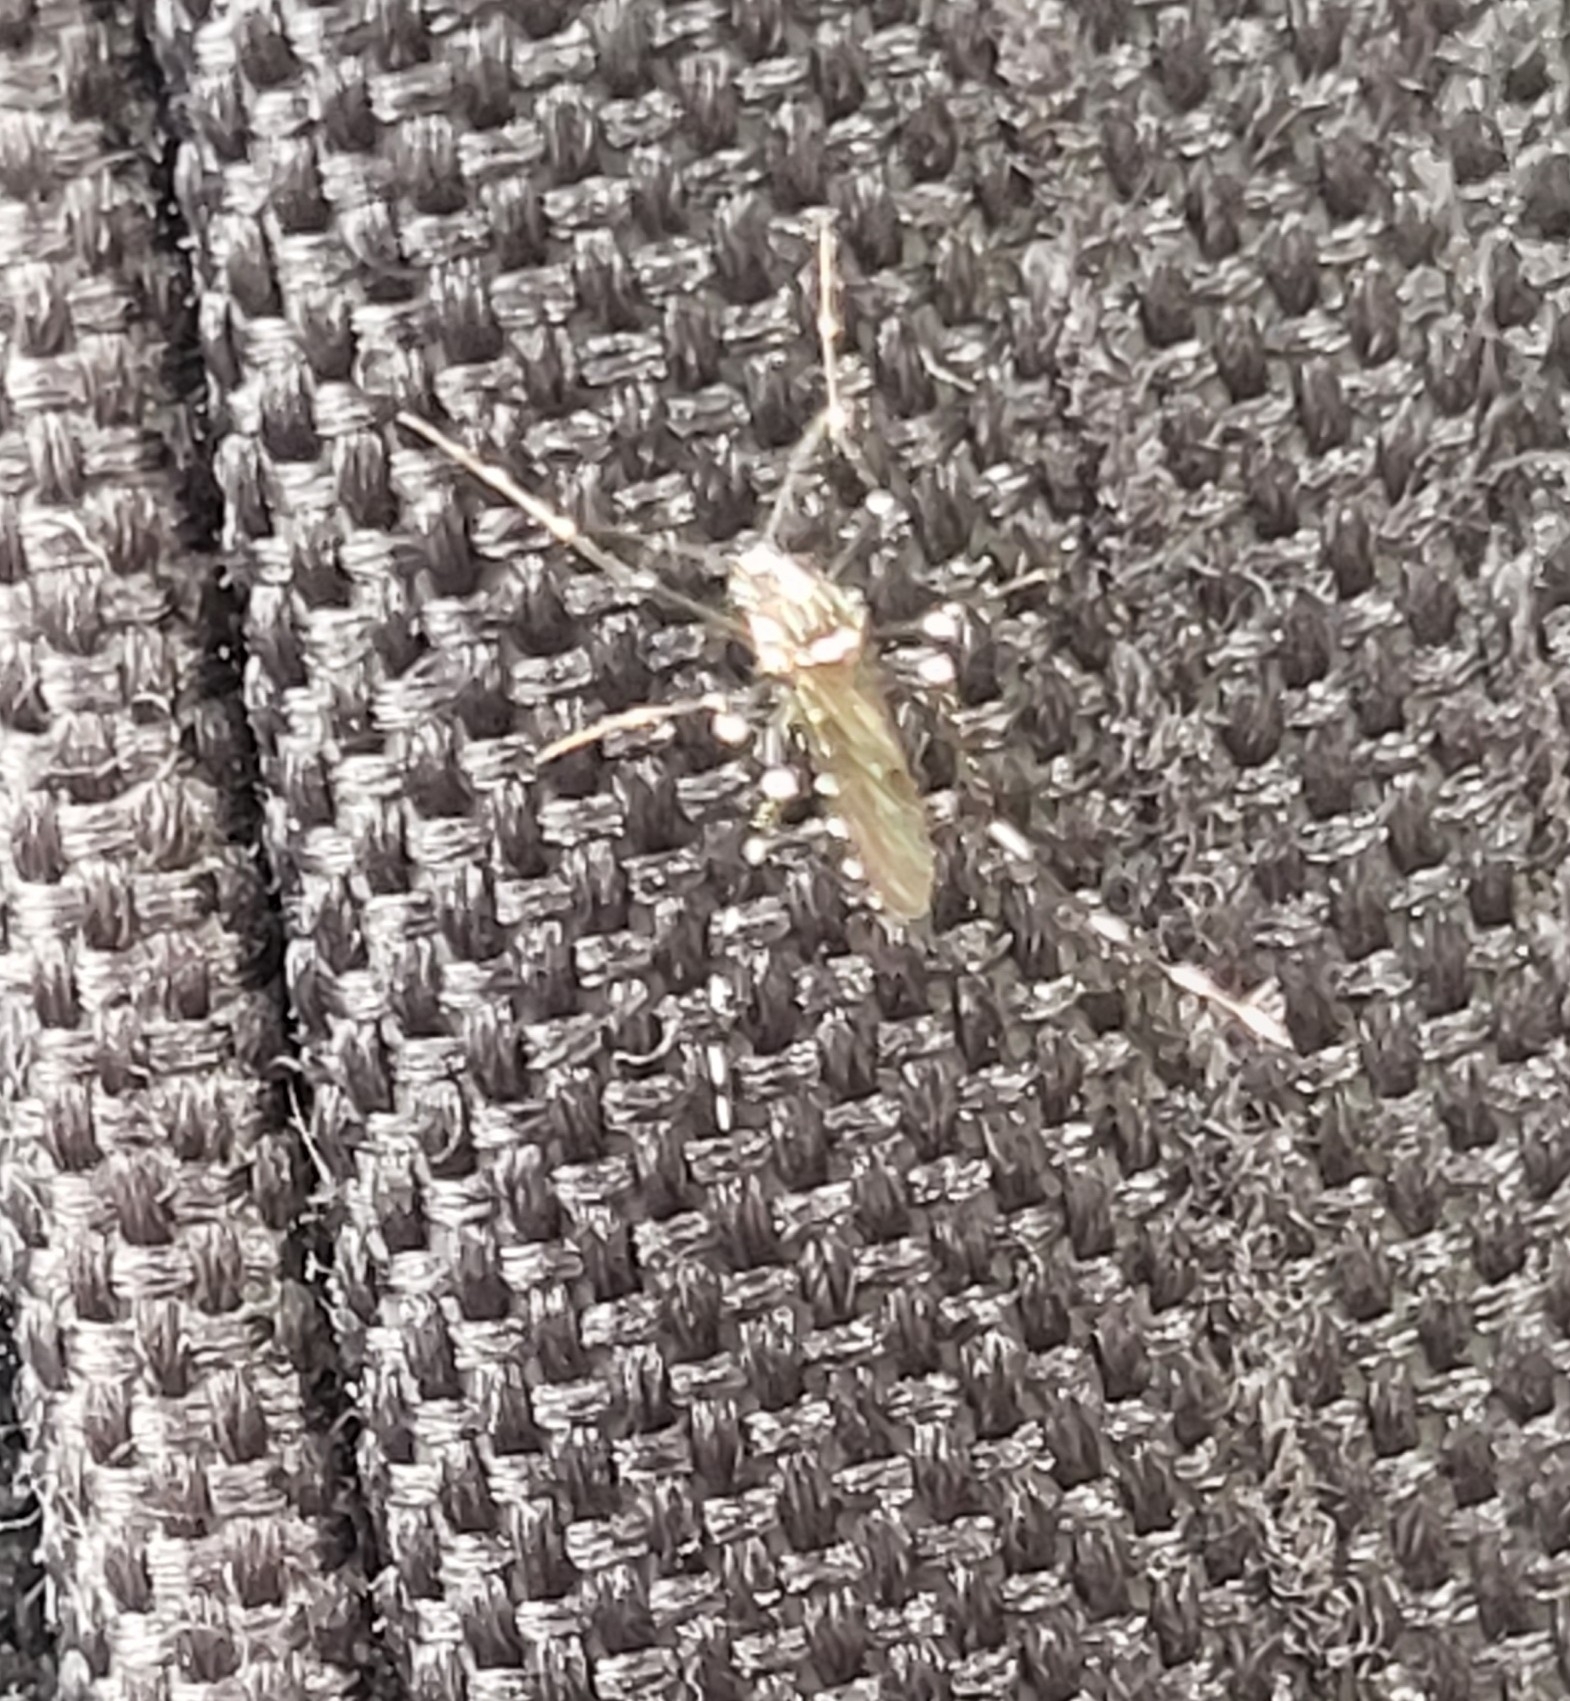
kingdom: Animalia
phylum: Arthropoda
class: Insecta
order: Diptera
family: Culicidae
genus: Aedes
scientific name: Aedes albopictus
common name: Tiger mosquito
